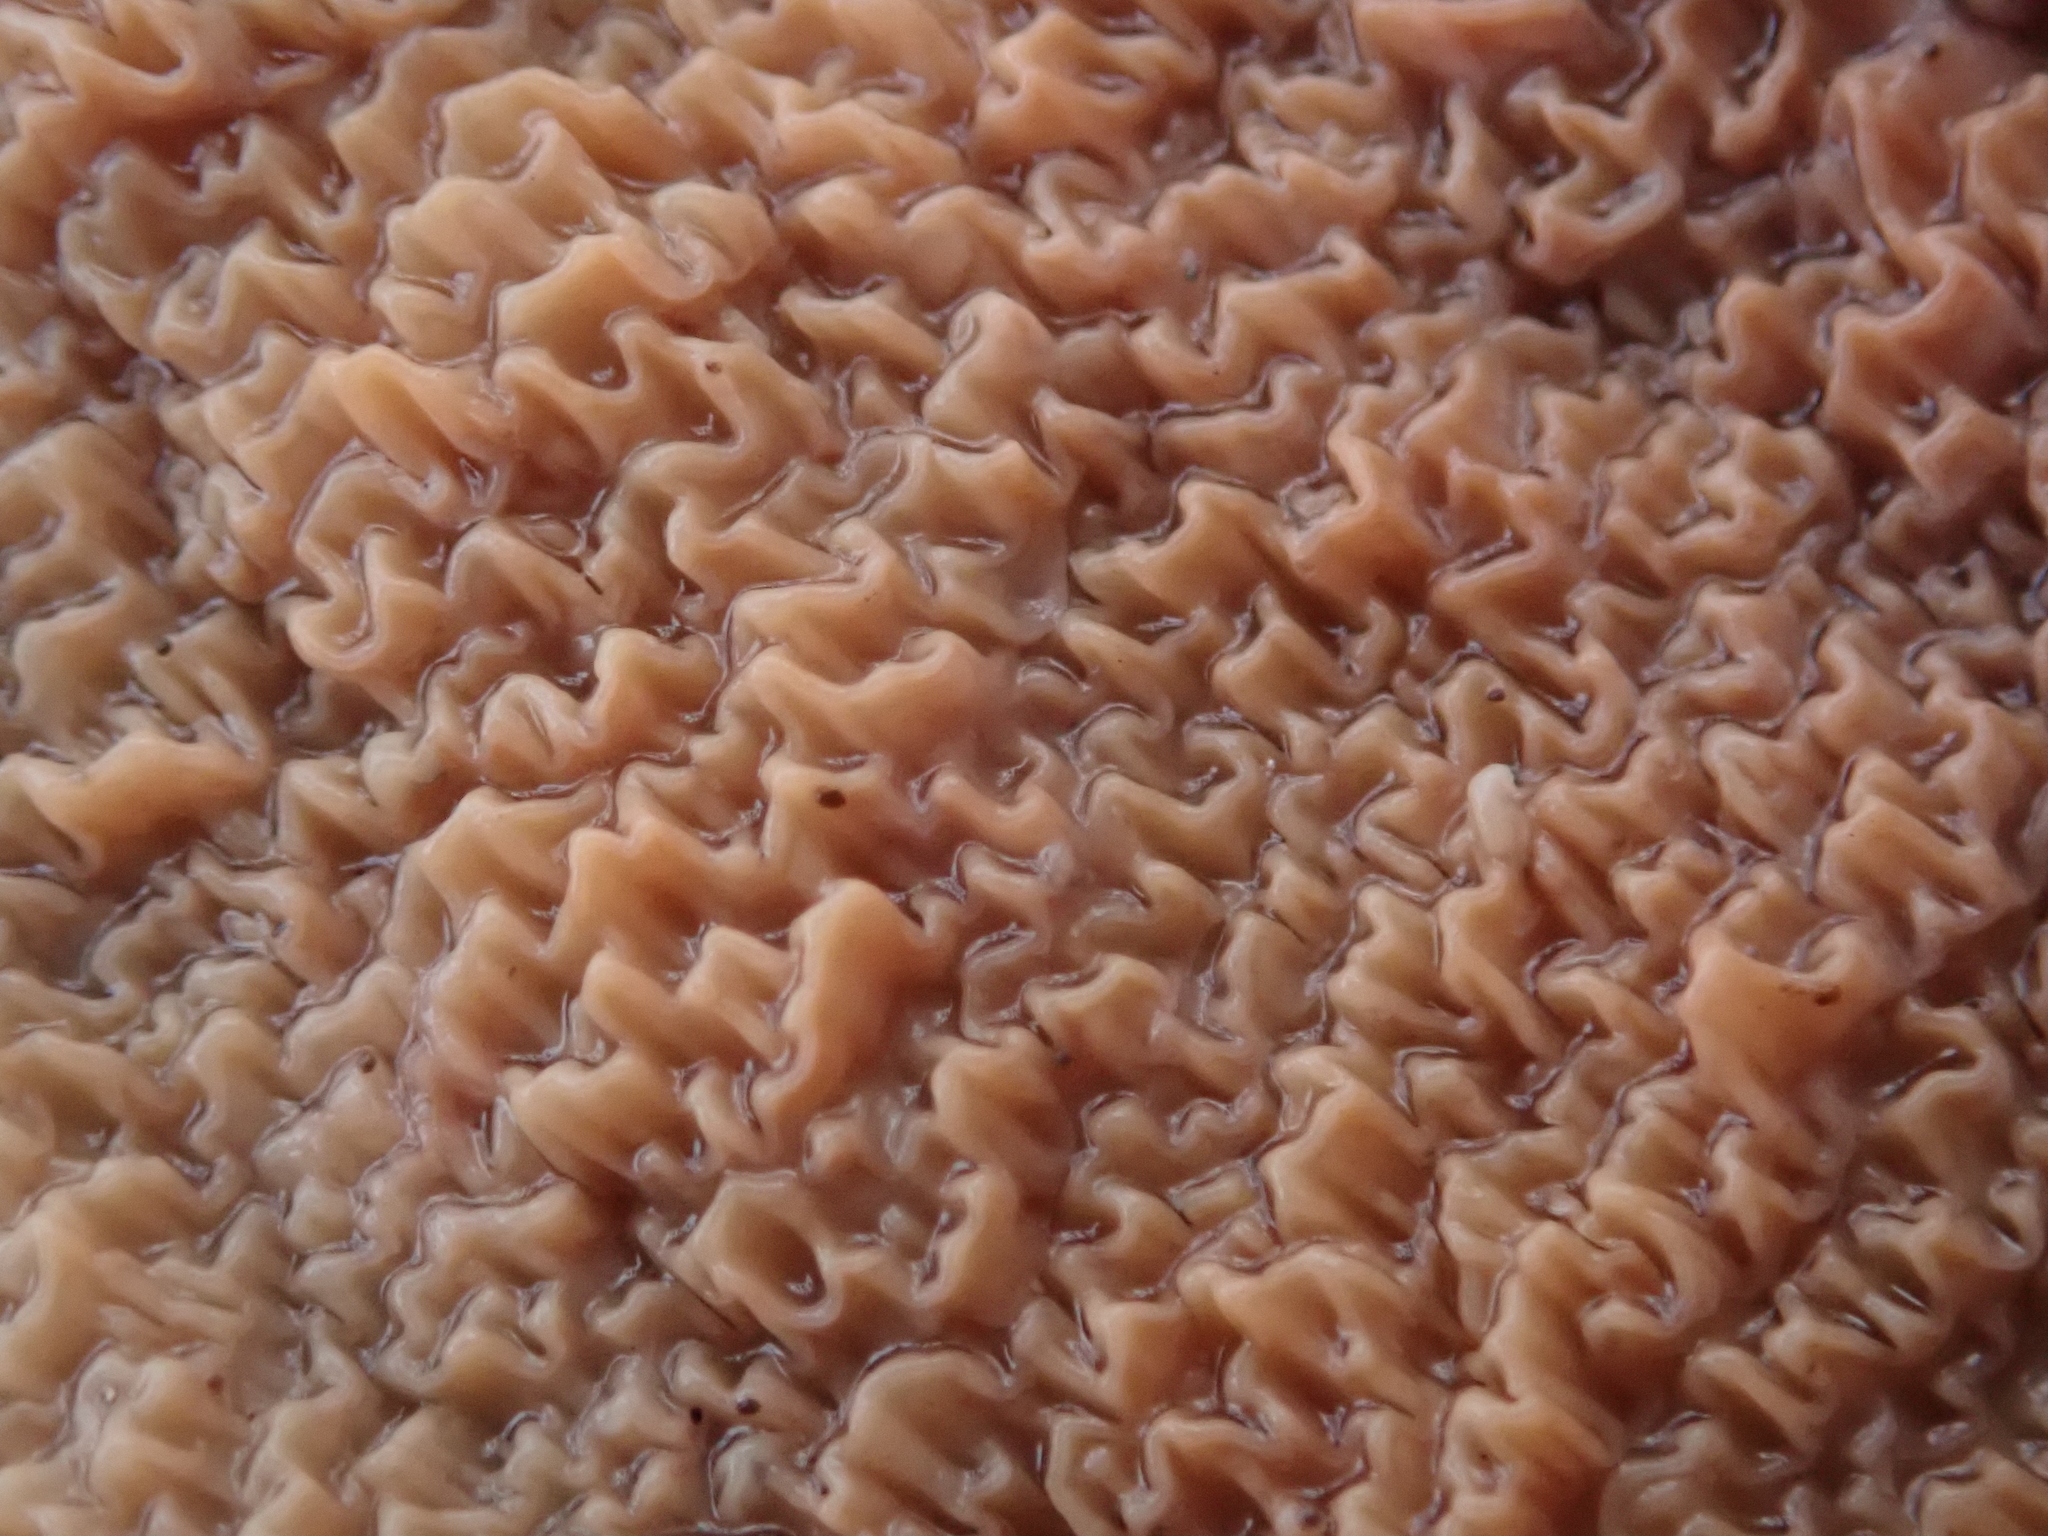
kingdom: Fungi
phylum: Basidiomycota
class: Agaricomycetes
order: Polyporales
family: Meruliaceae
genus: Phlebia
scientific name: Phlebia tremellosa
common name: Jelly rot
